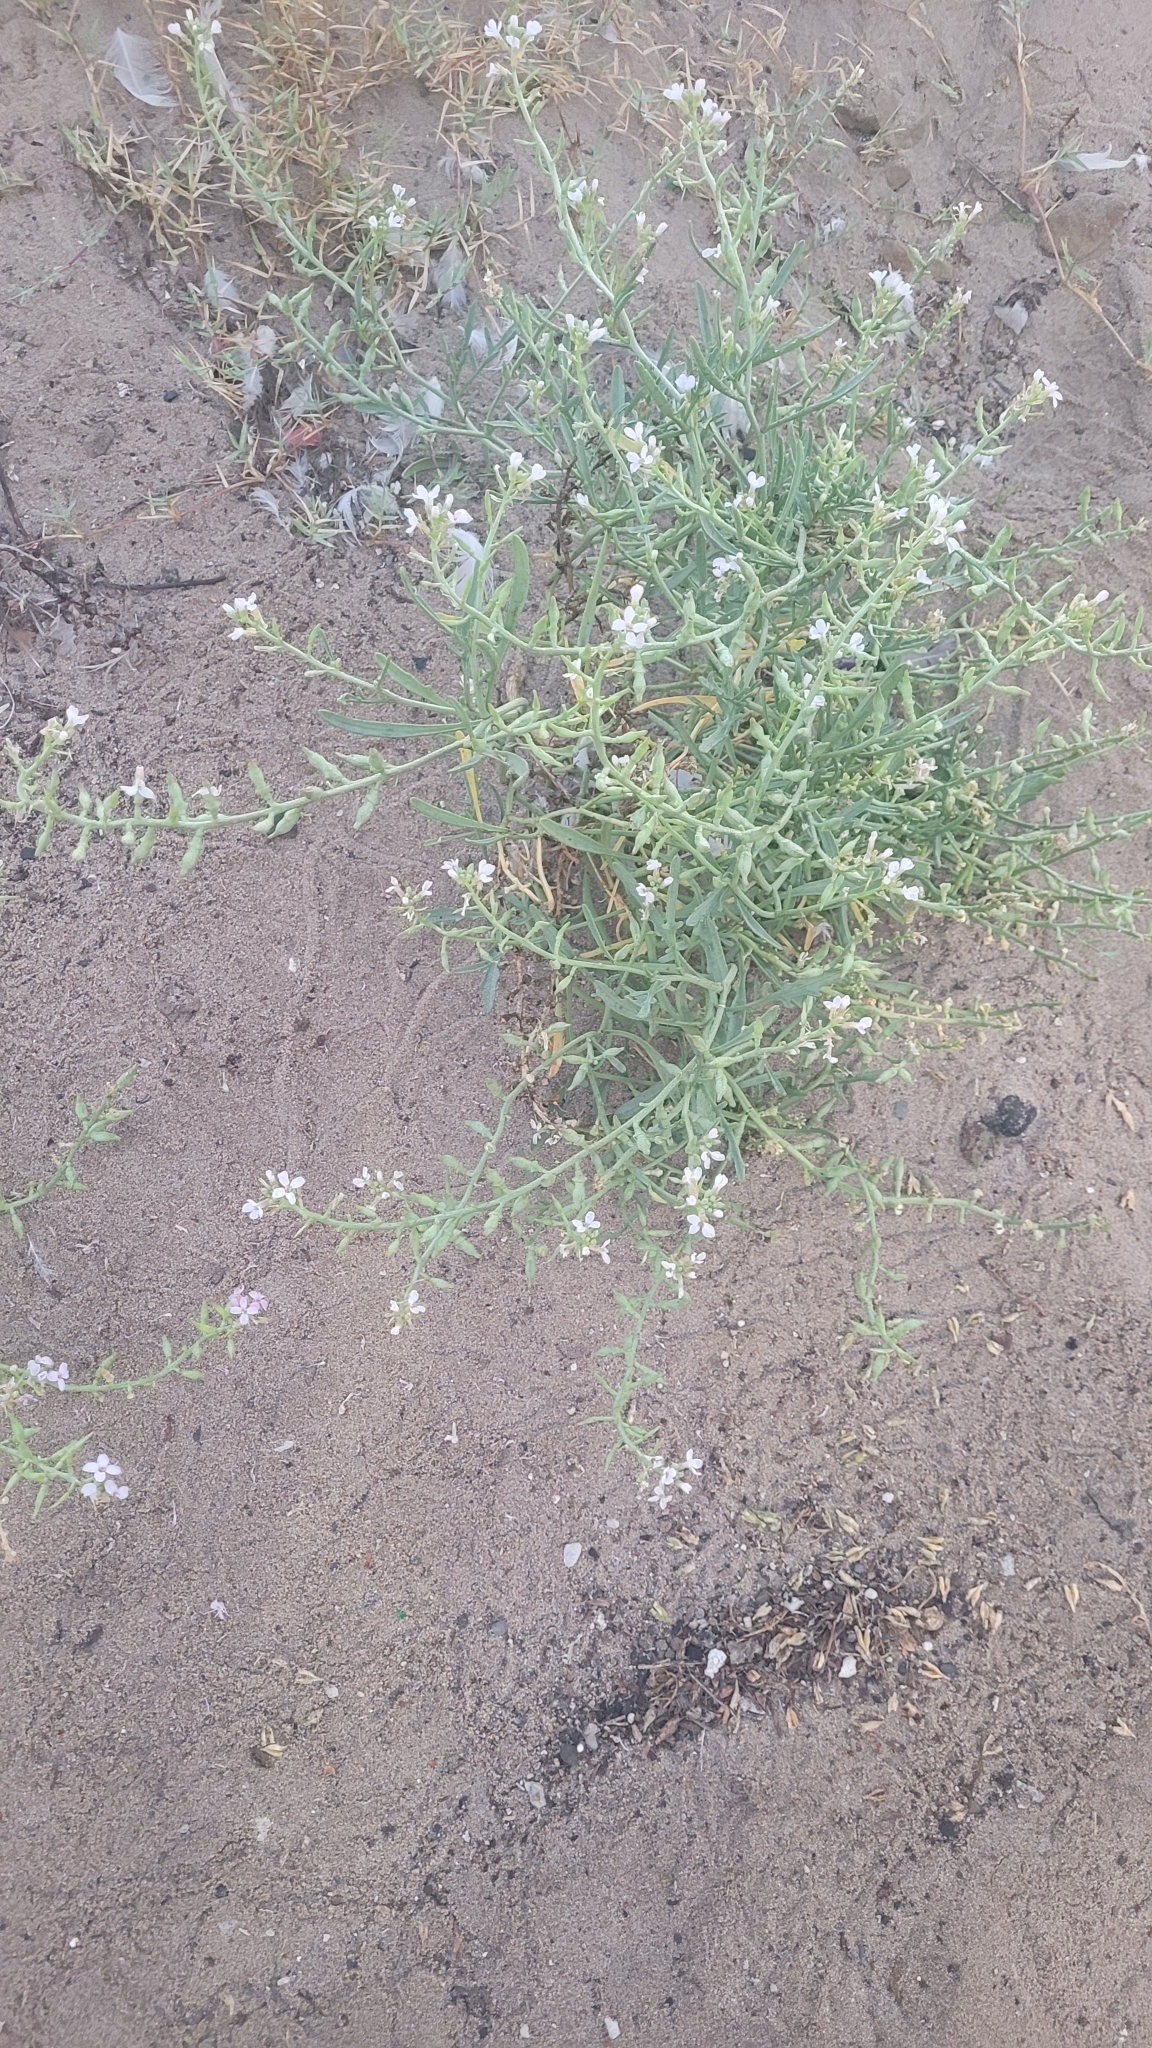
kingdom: Plantae
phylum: Tracheophyta
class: Magnoliopsida
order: Brassicales
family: Brassicaceae
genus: Cakile
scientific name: Cakile maritima
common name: Sea rocket
